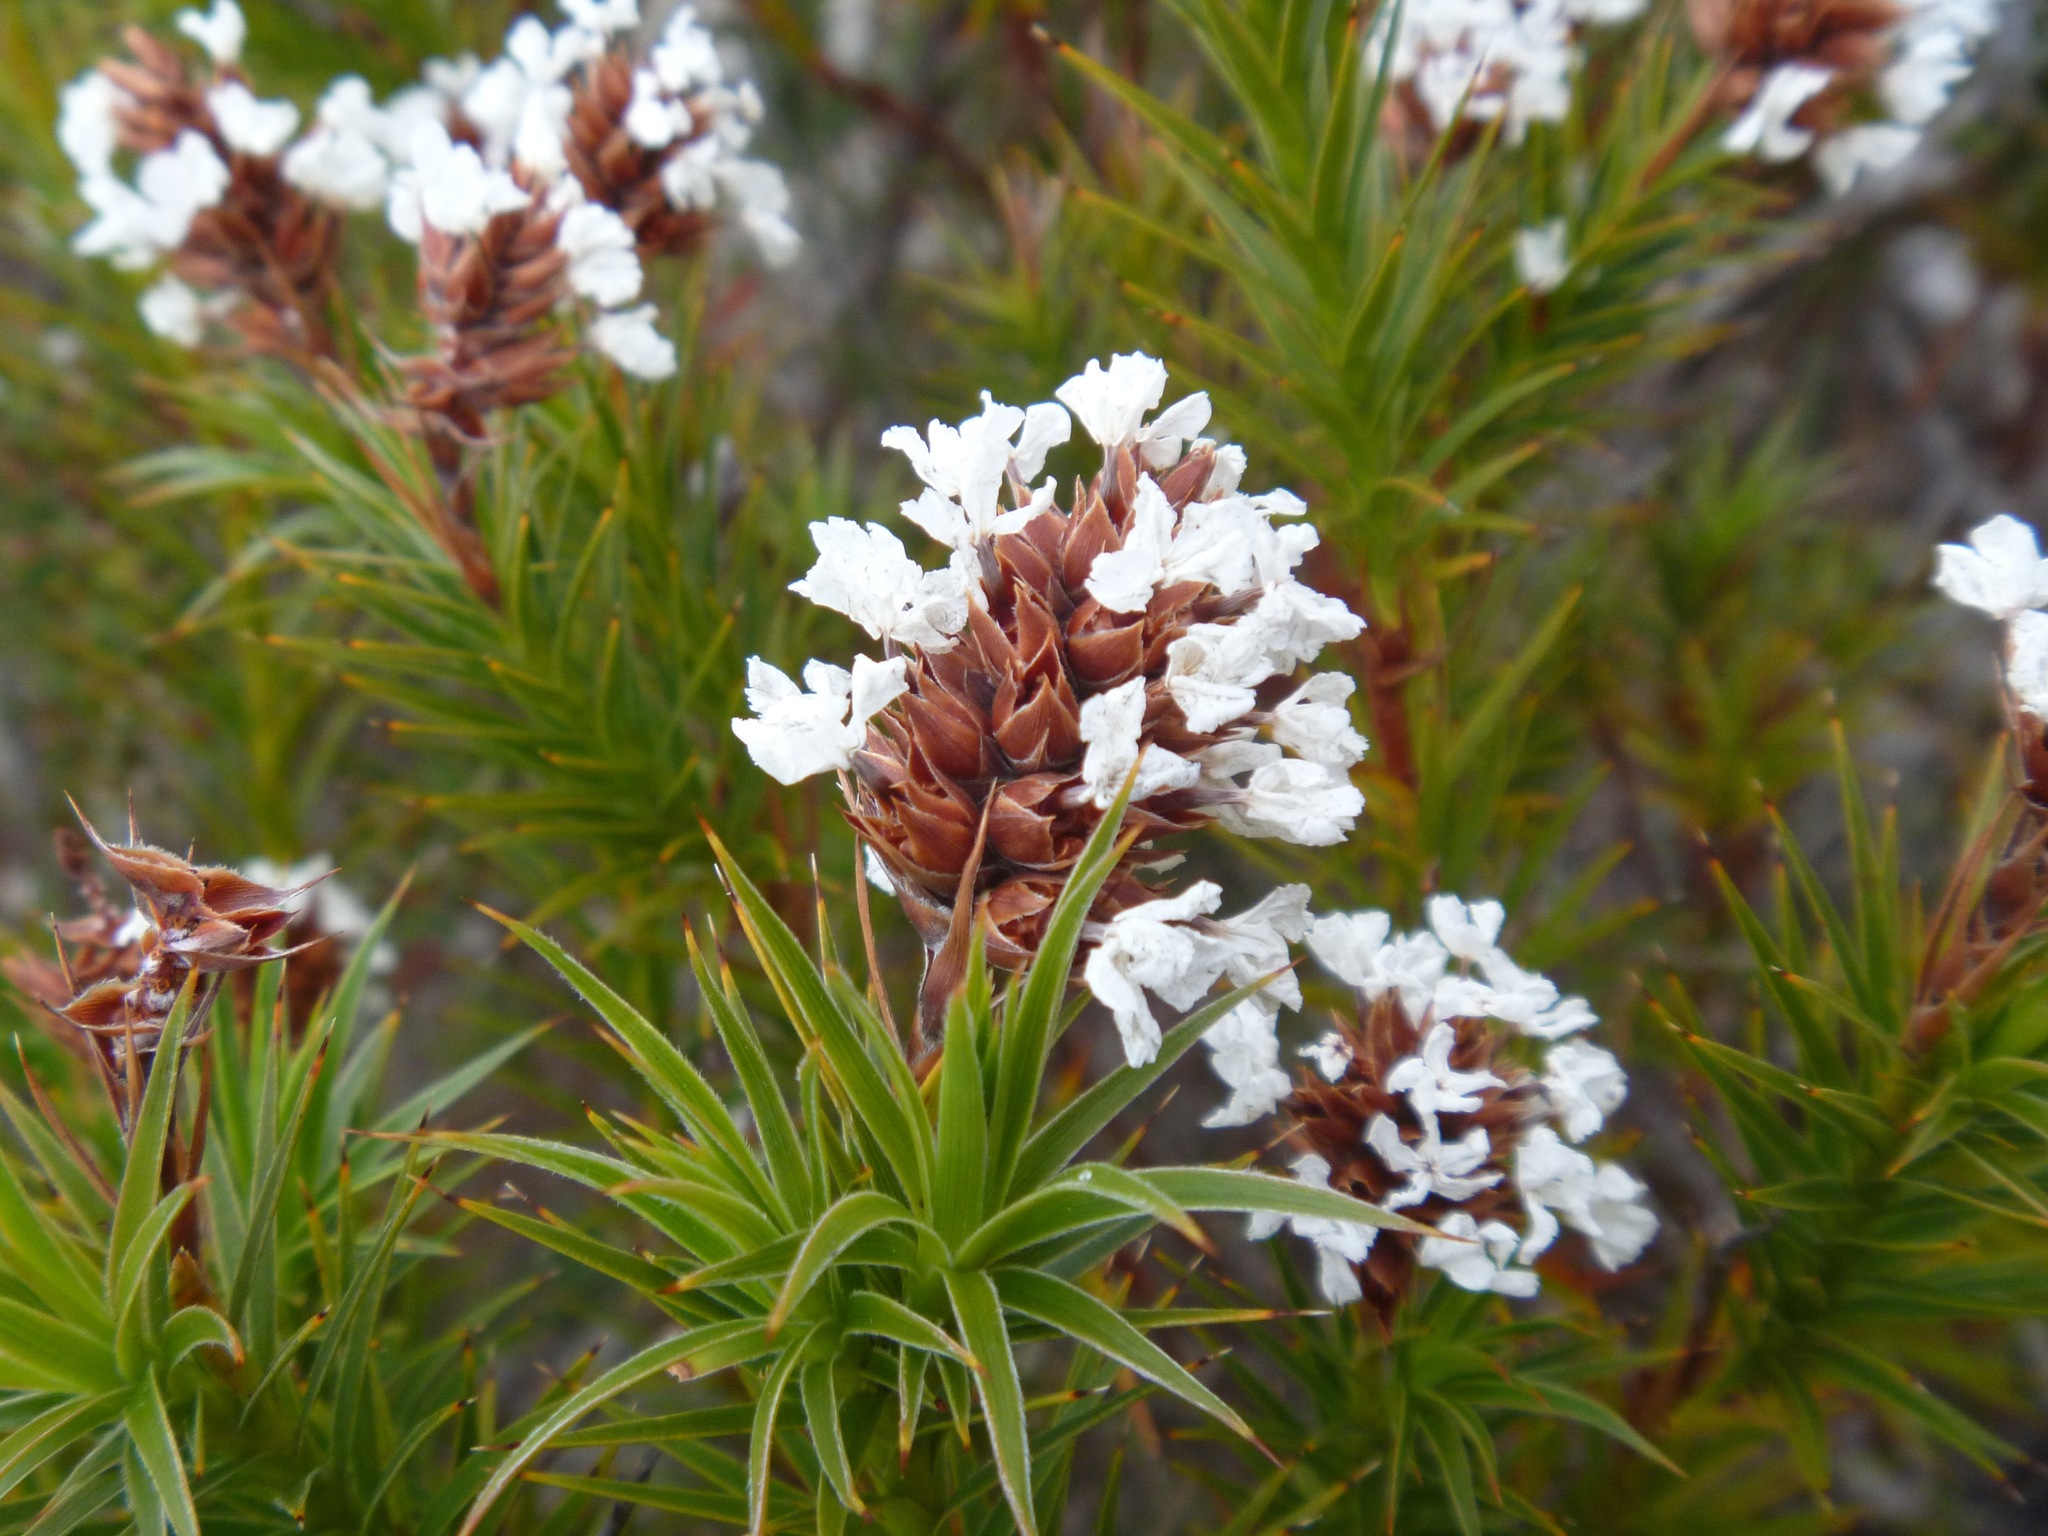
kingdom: Plantae
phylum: Tracheophyta
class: Magnoliopsida
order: Ericales
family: Ericaceae
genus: Sphenotoma
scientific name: Sphenotoma squarrosum
